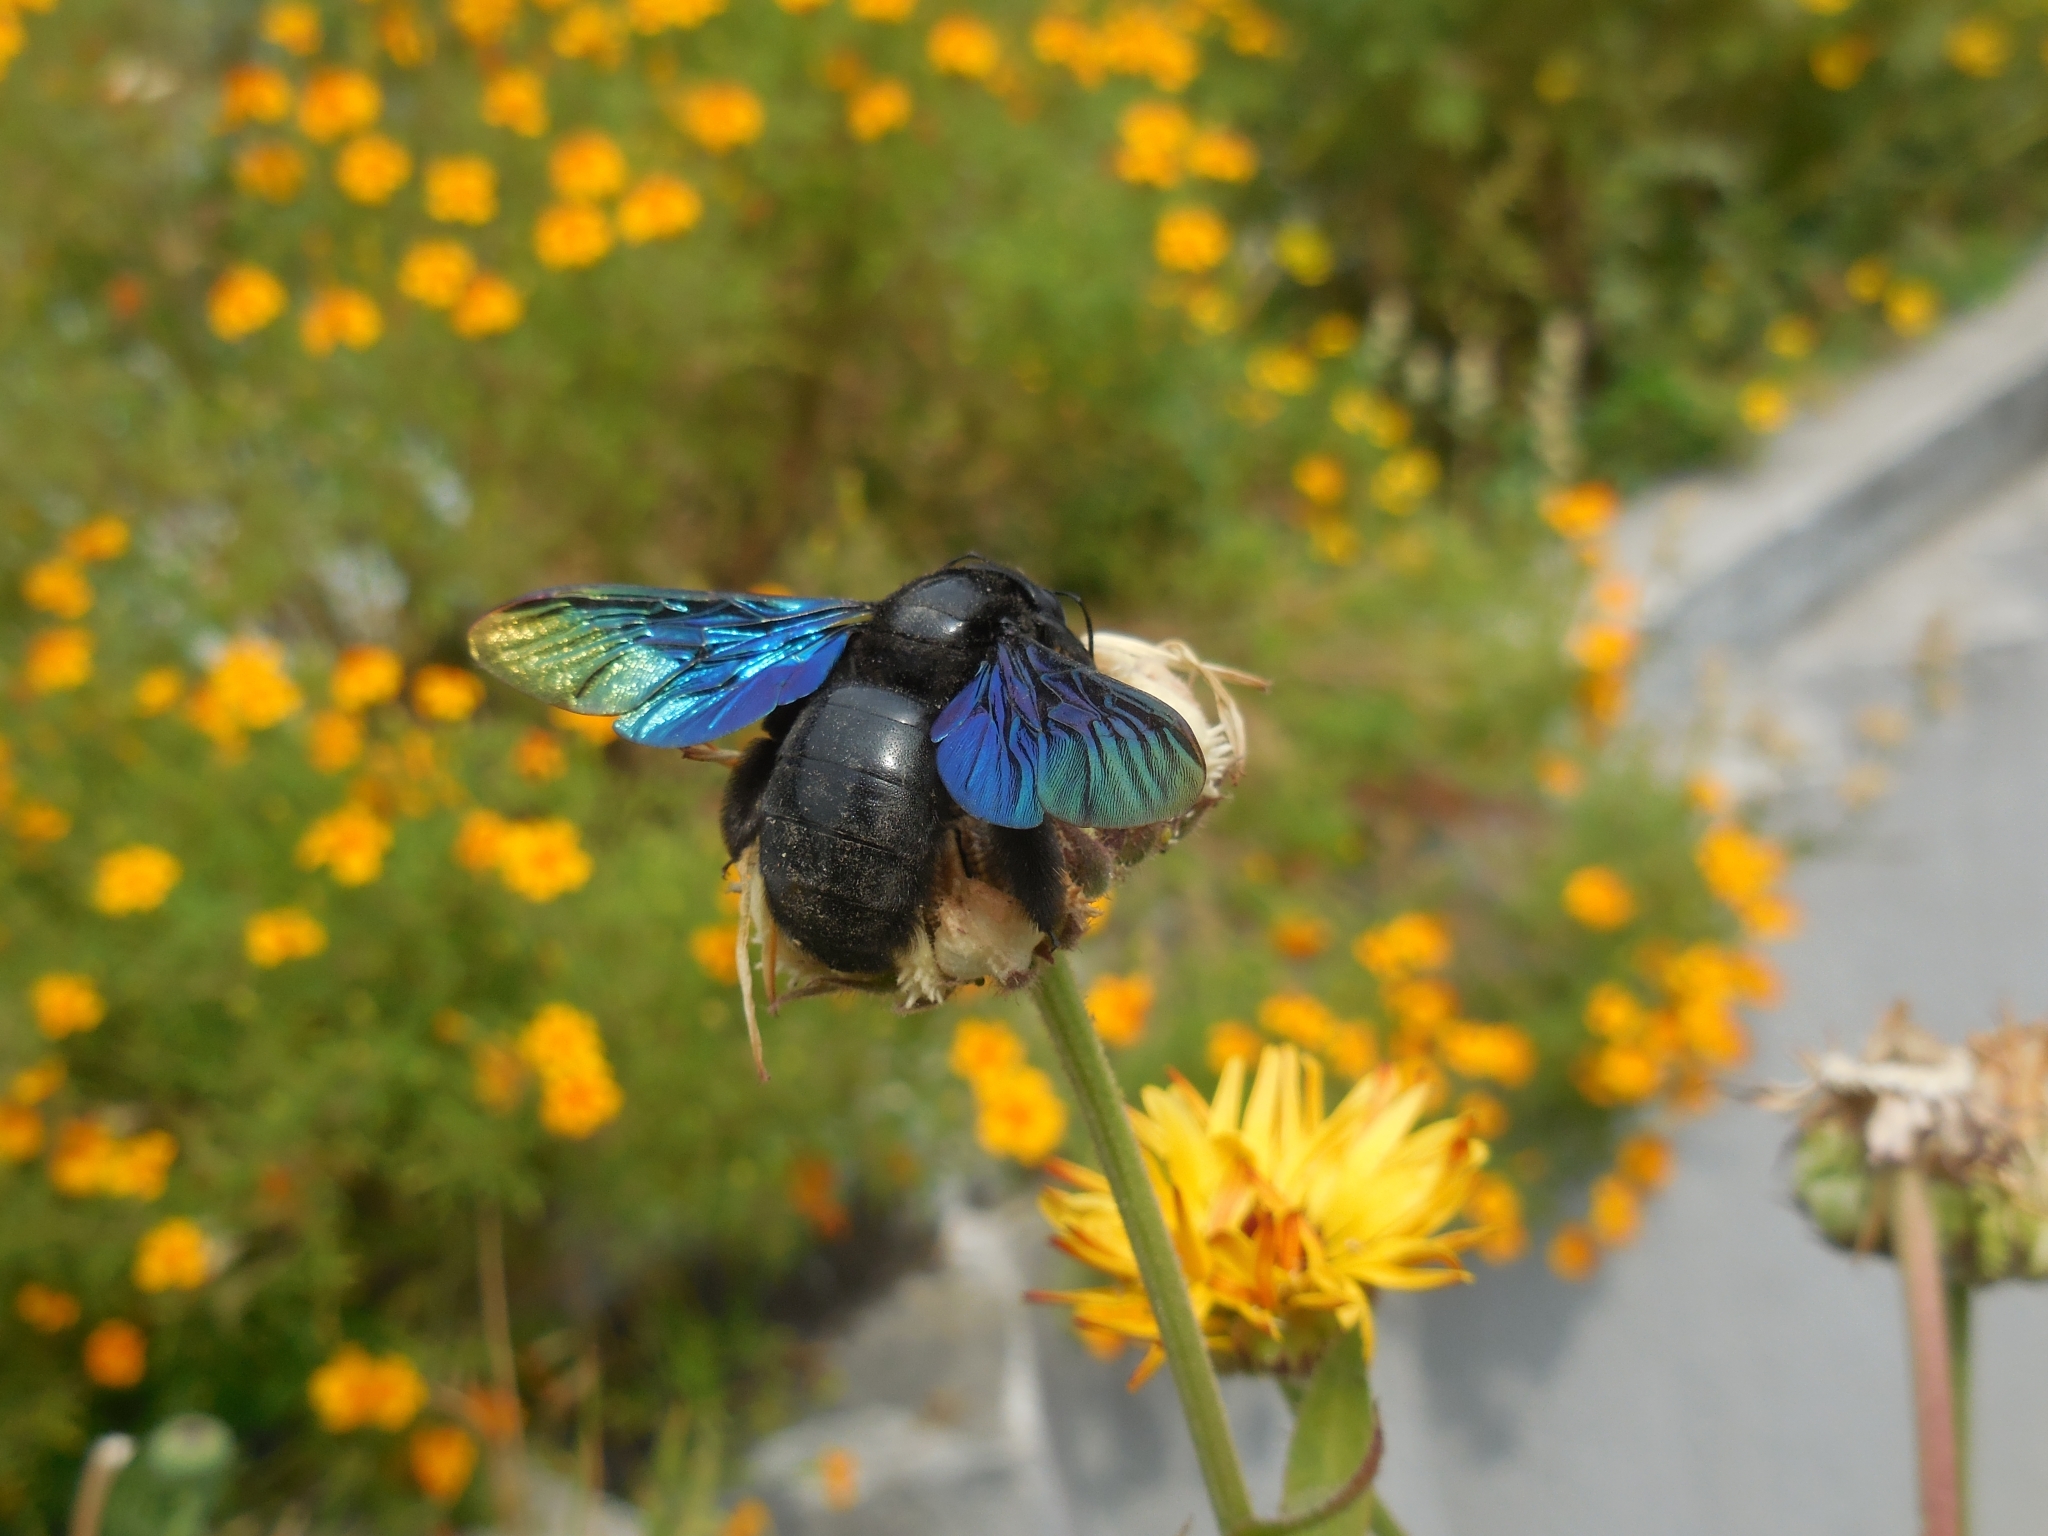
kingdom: Animalia
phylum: Arthropoda
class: Insecta
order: Hymenoptera
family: Apidae
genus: Xylocopa
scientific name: Xylocopa auripennis
